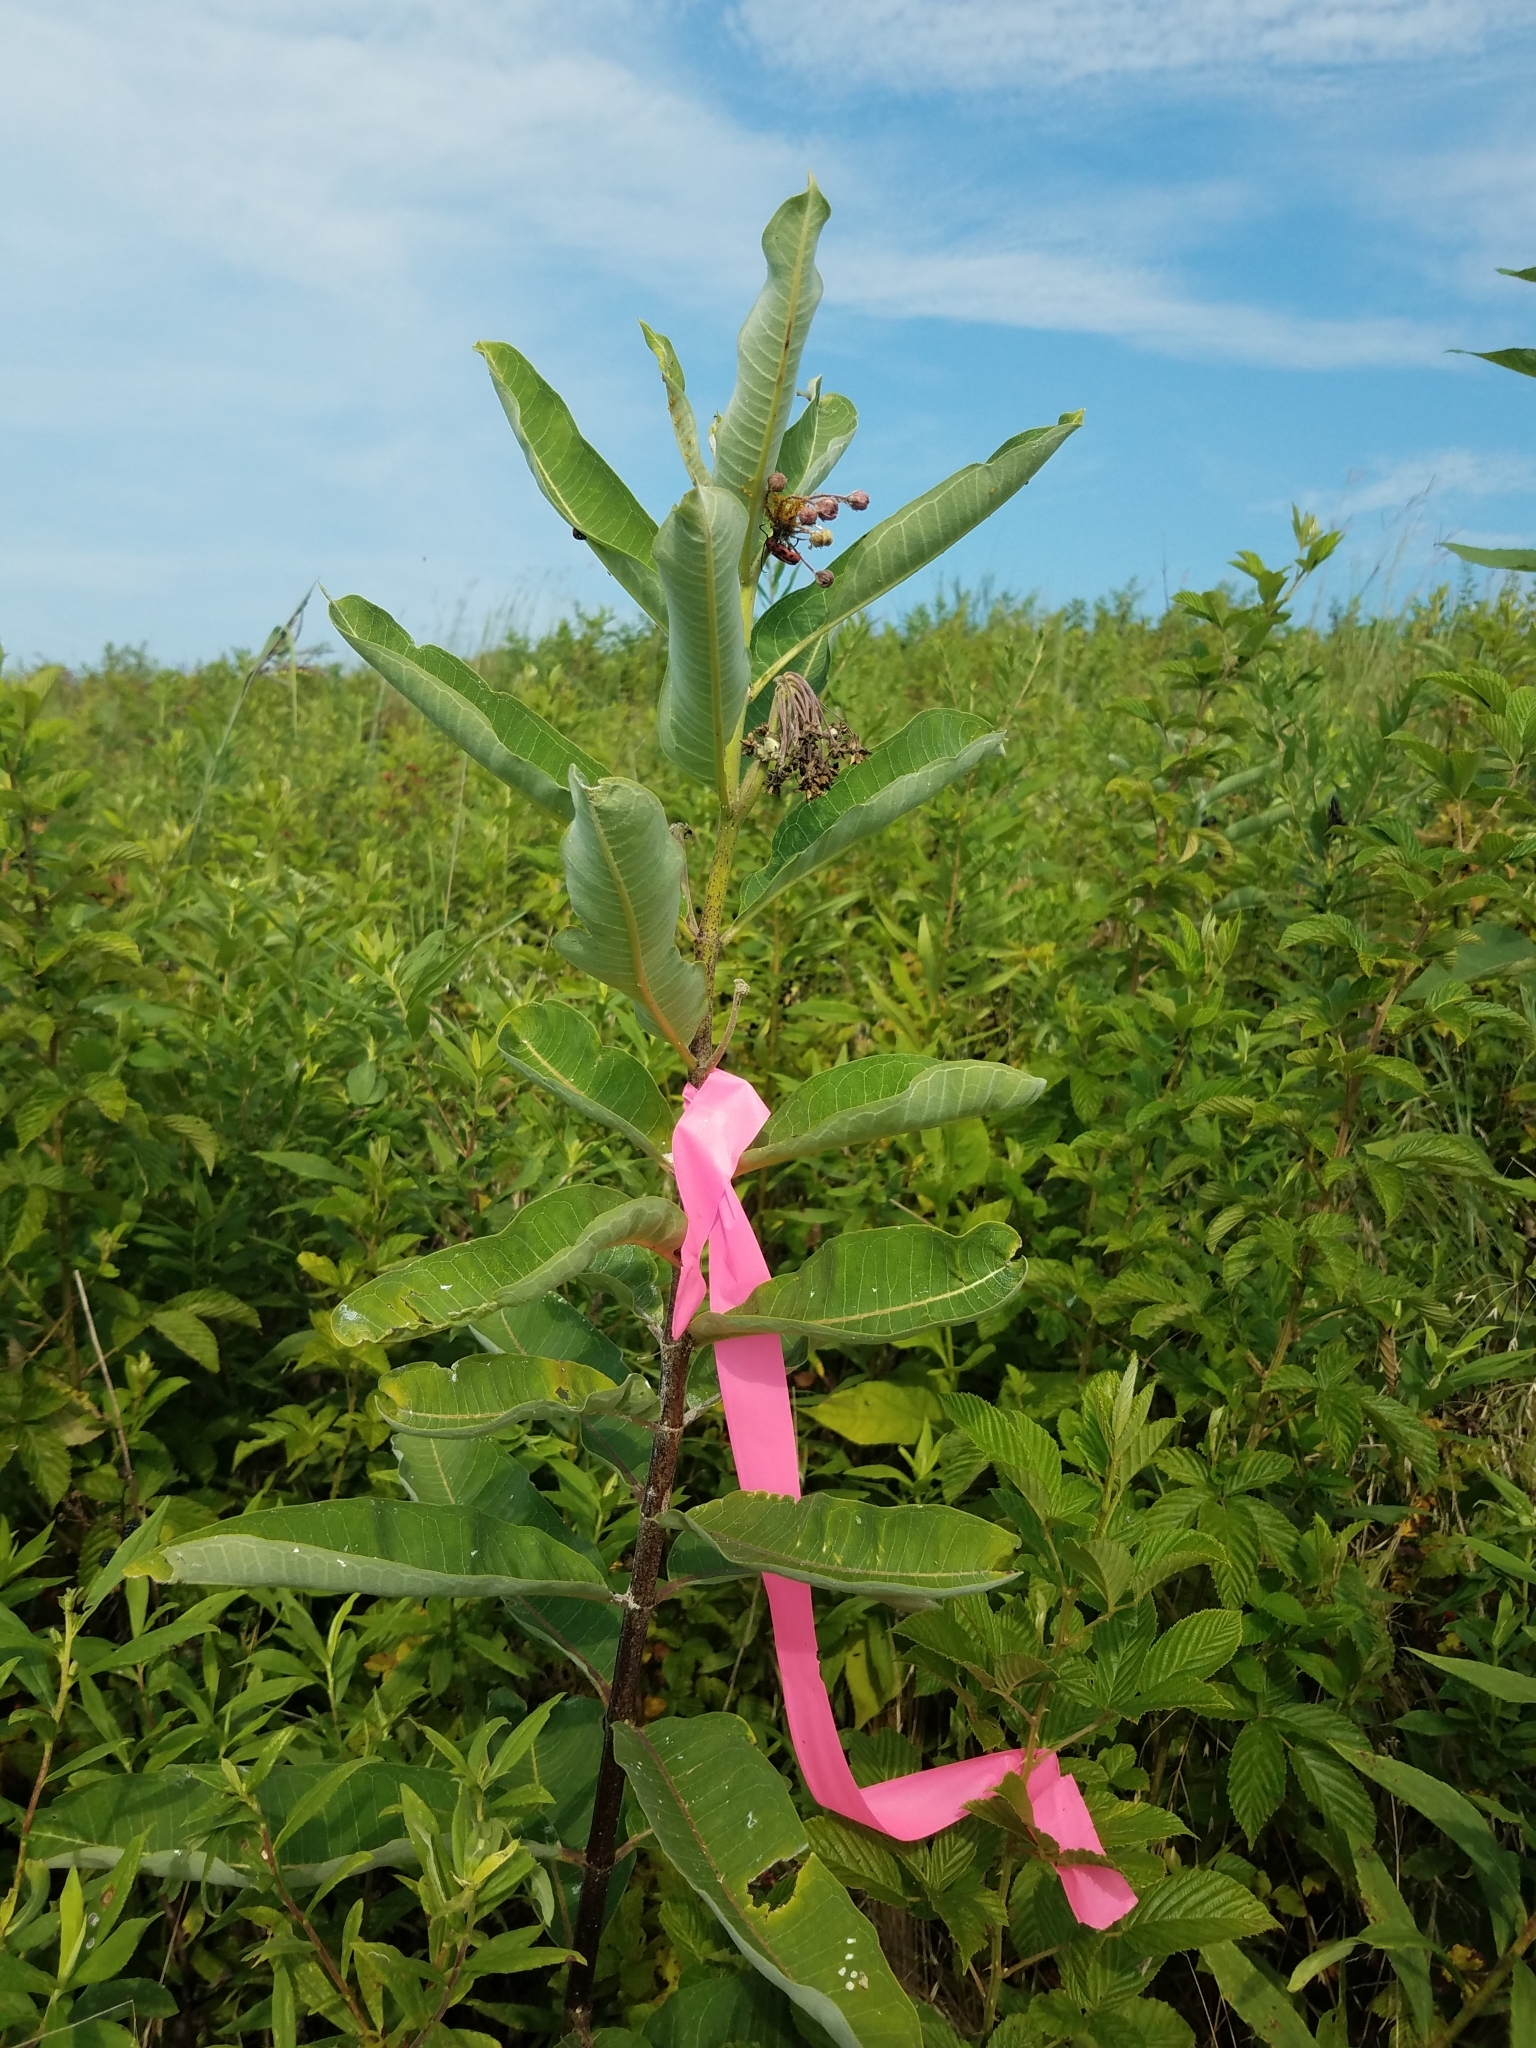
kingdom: Plantae
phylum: Tracheophyta
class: Magnoliopsida
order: Gentianales
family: Apocynaceae
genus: Asclepias
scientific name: Asclepias syriaca
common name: Common milkweed
